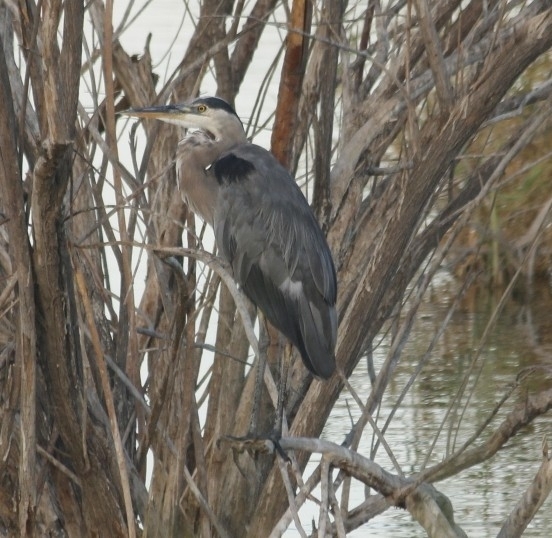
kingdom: Animalia
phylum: Chordata
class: Aves
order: Pelecaniformes
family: Ardeidae
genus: Ardea
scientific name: Ardea herodias
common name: Great blue heron
